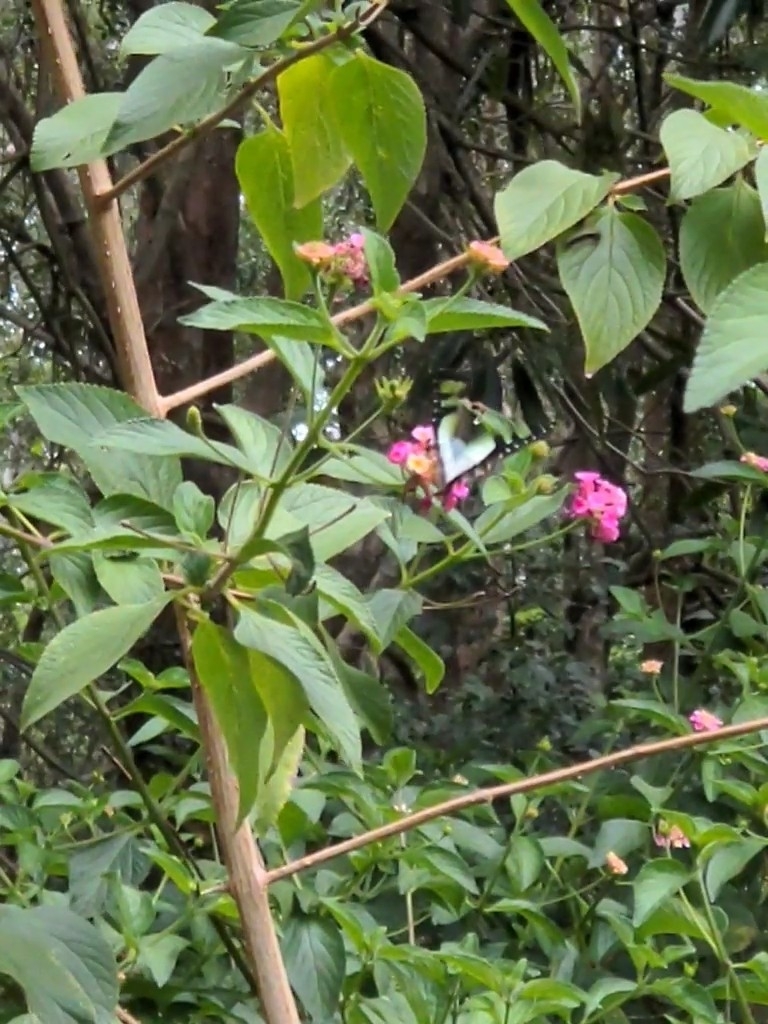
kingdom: Animalia
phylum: Arthropoda
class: Insecta
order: Lepidoptera
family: Papilionidae
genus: Graphium
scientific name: Graphium macleayanus
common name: Macleay's swallowtail
